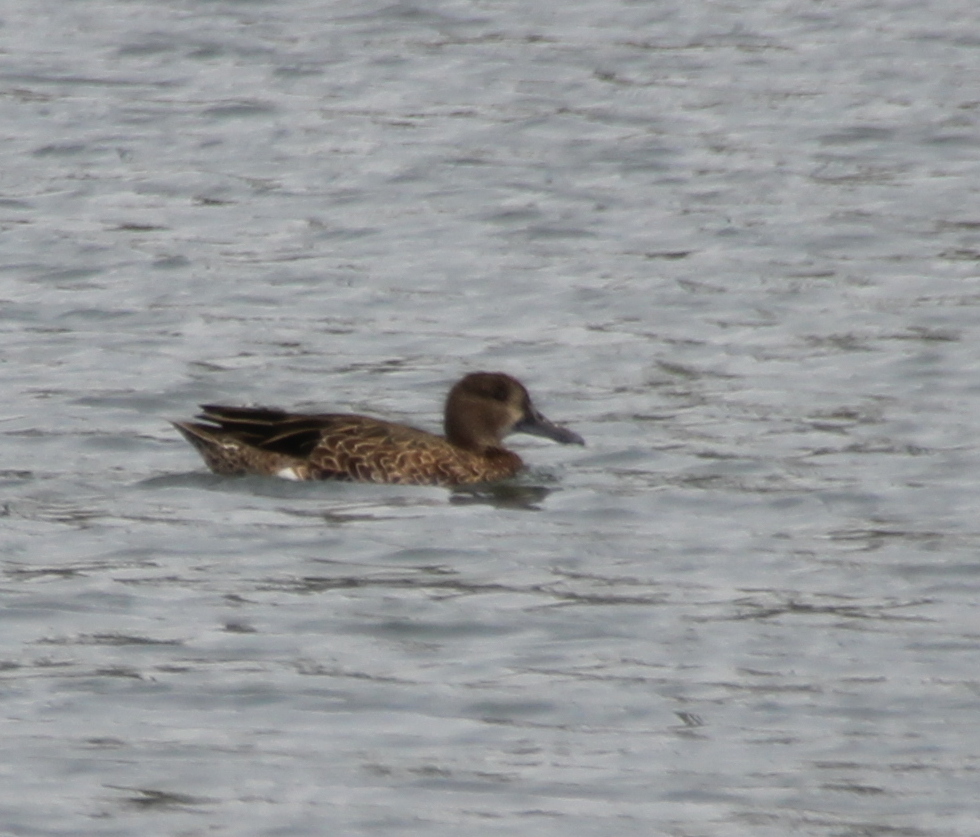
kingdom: Animalia
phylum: Chordata
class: Aves
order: Anseriformes
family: Anatidae
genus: Spatula
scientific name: Spatula cyanoptera
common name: Cinnamon teal
